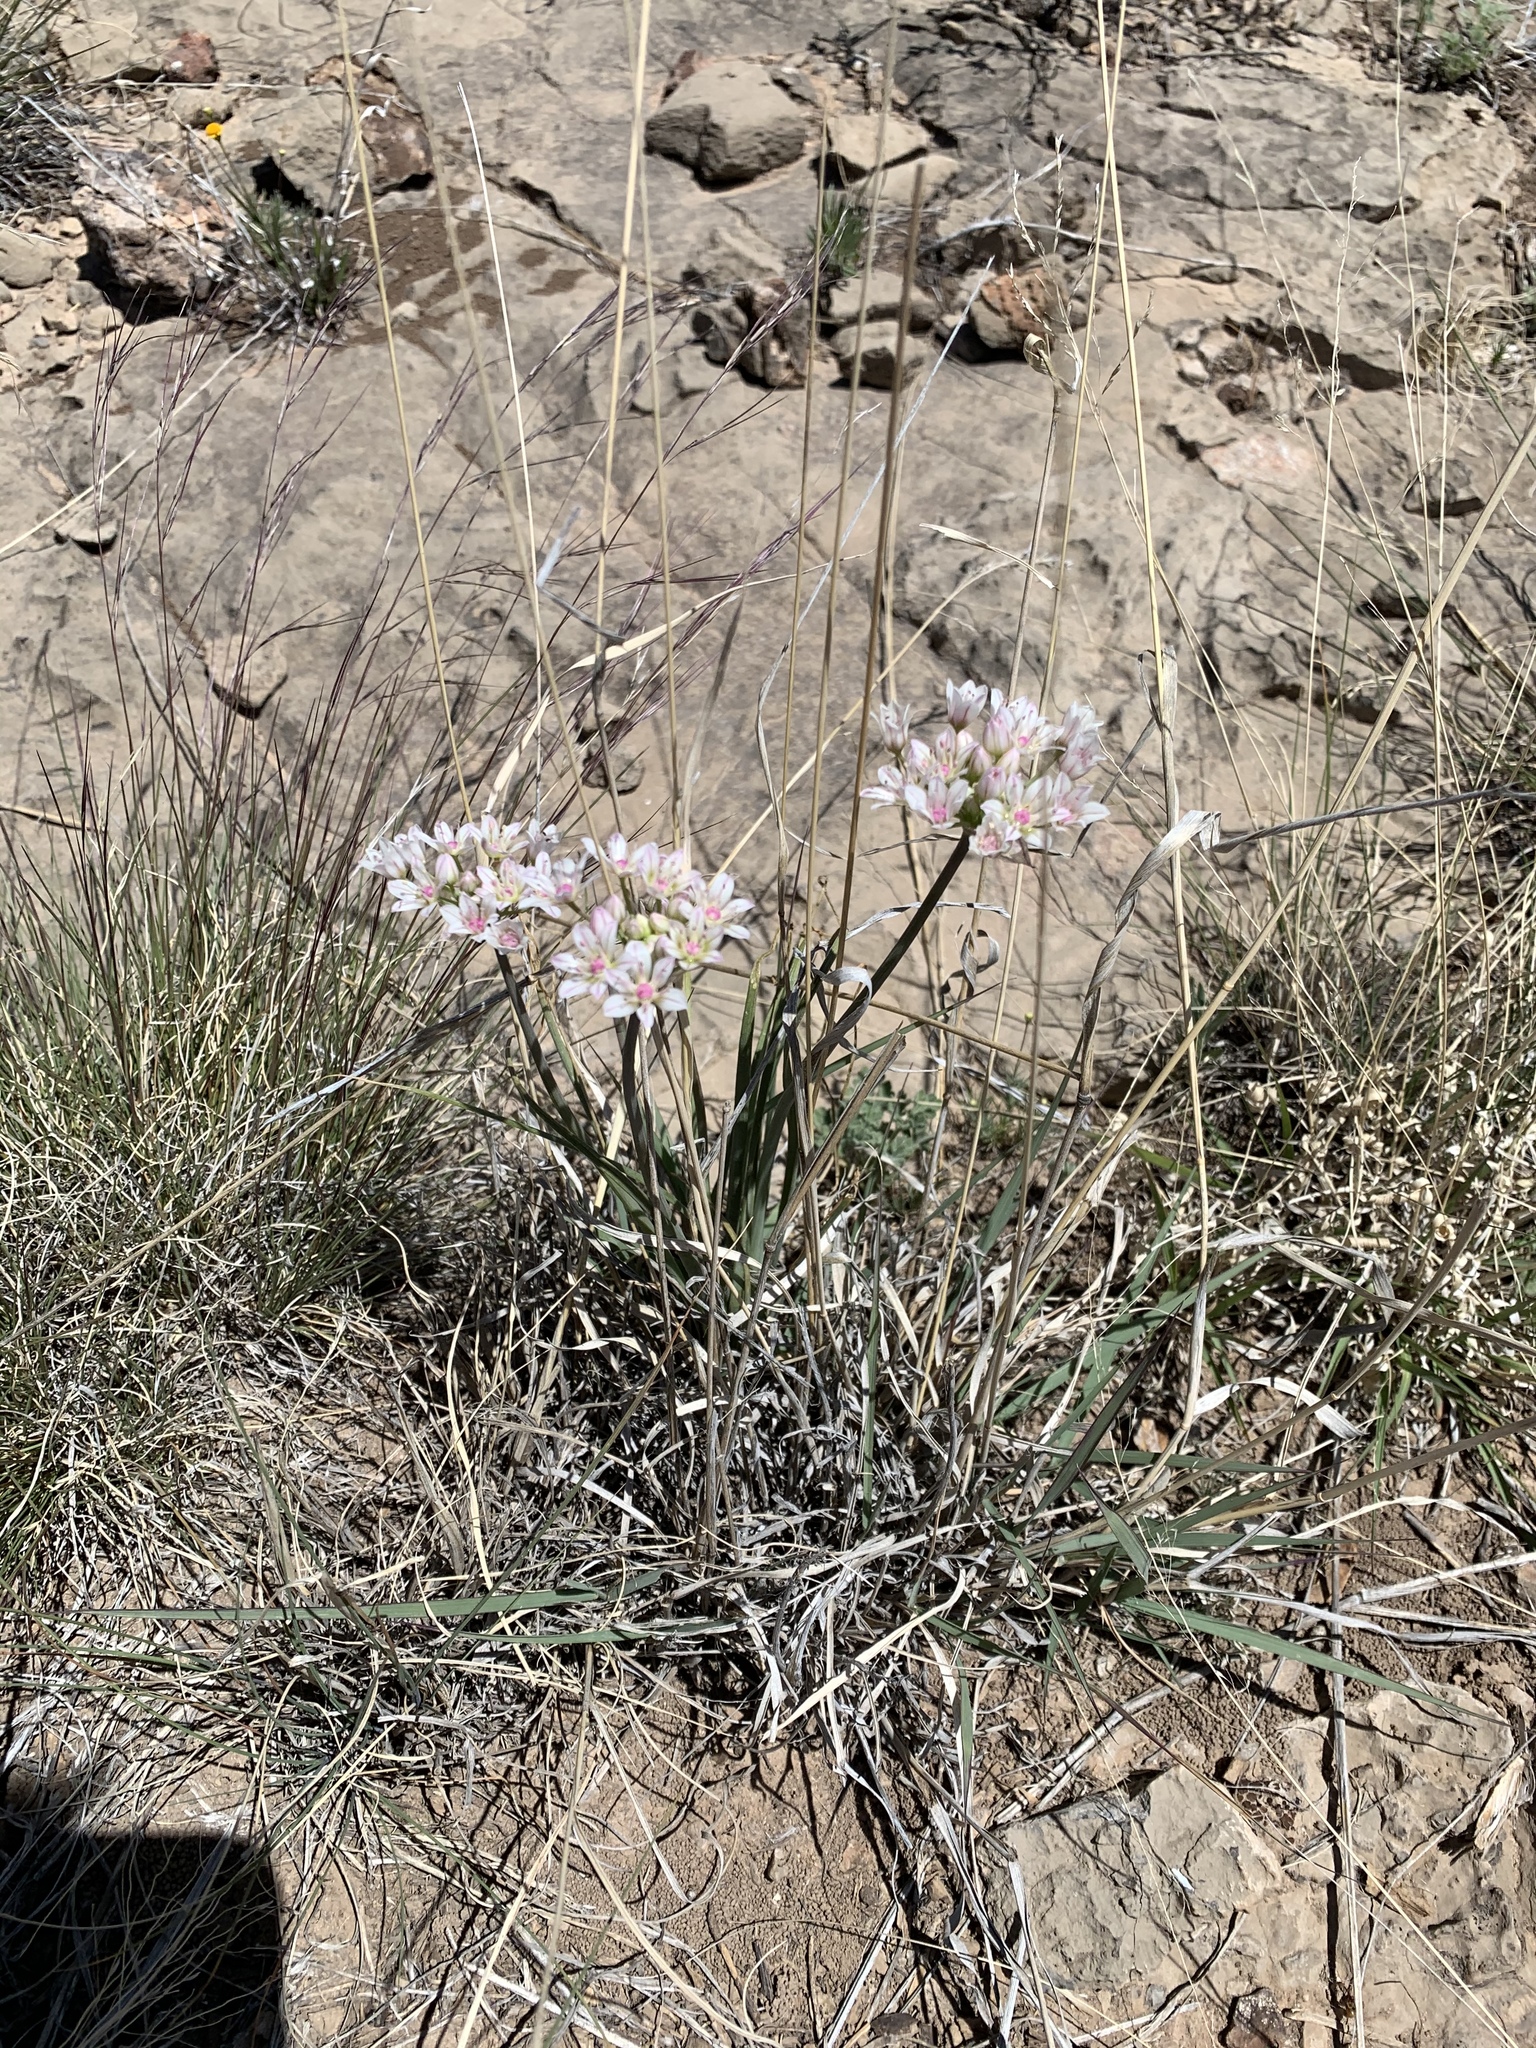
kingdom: Plantae
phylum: Tracheophyta
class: Liliopsida
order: Asparagales
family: Amaryllidaceae
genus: Allium
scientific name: Allium drummondii
